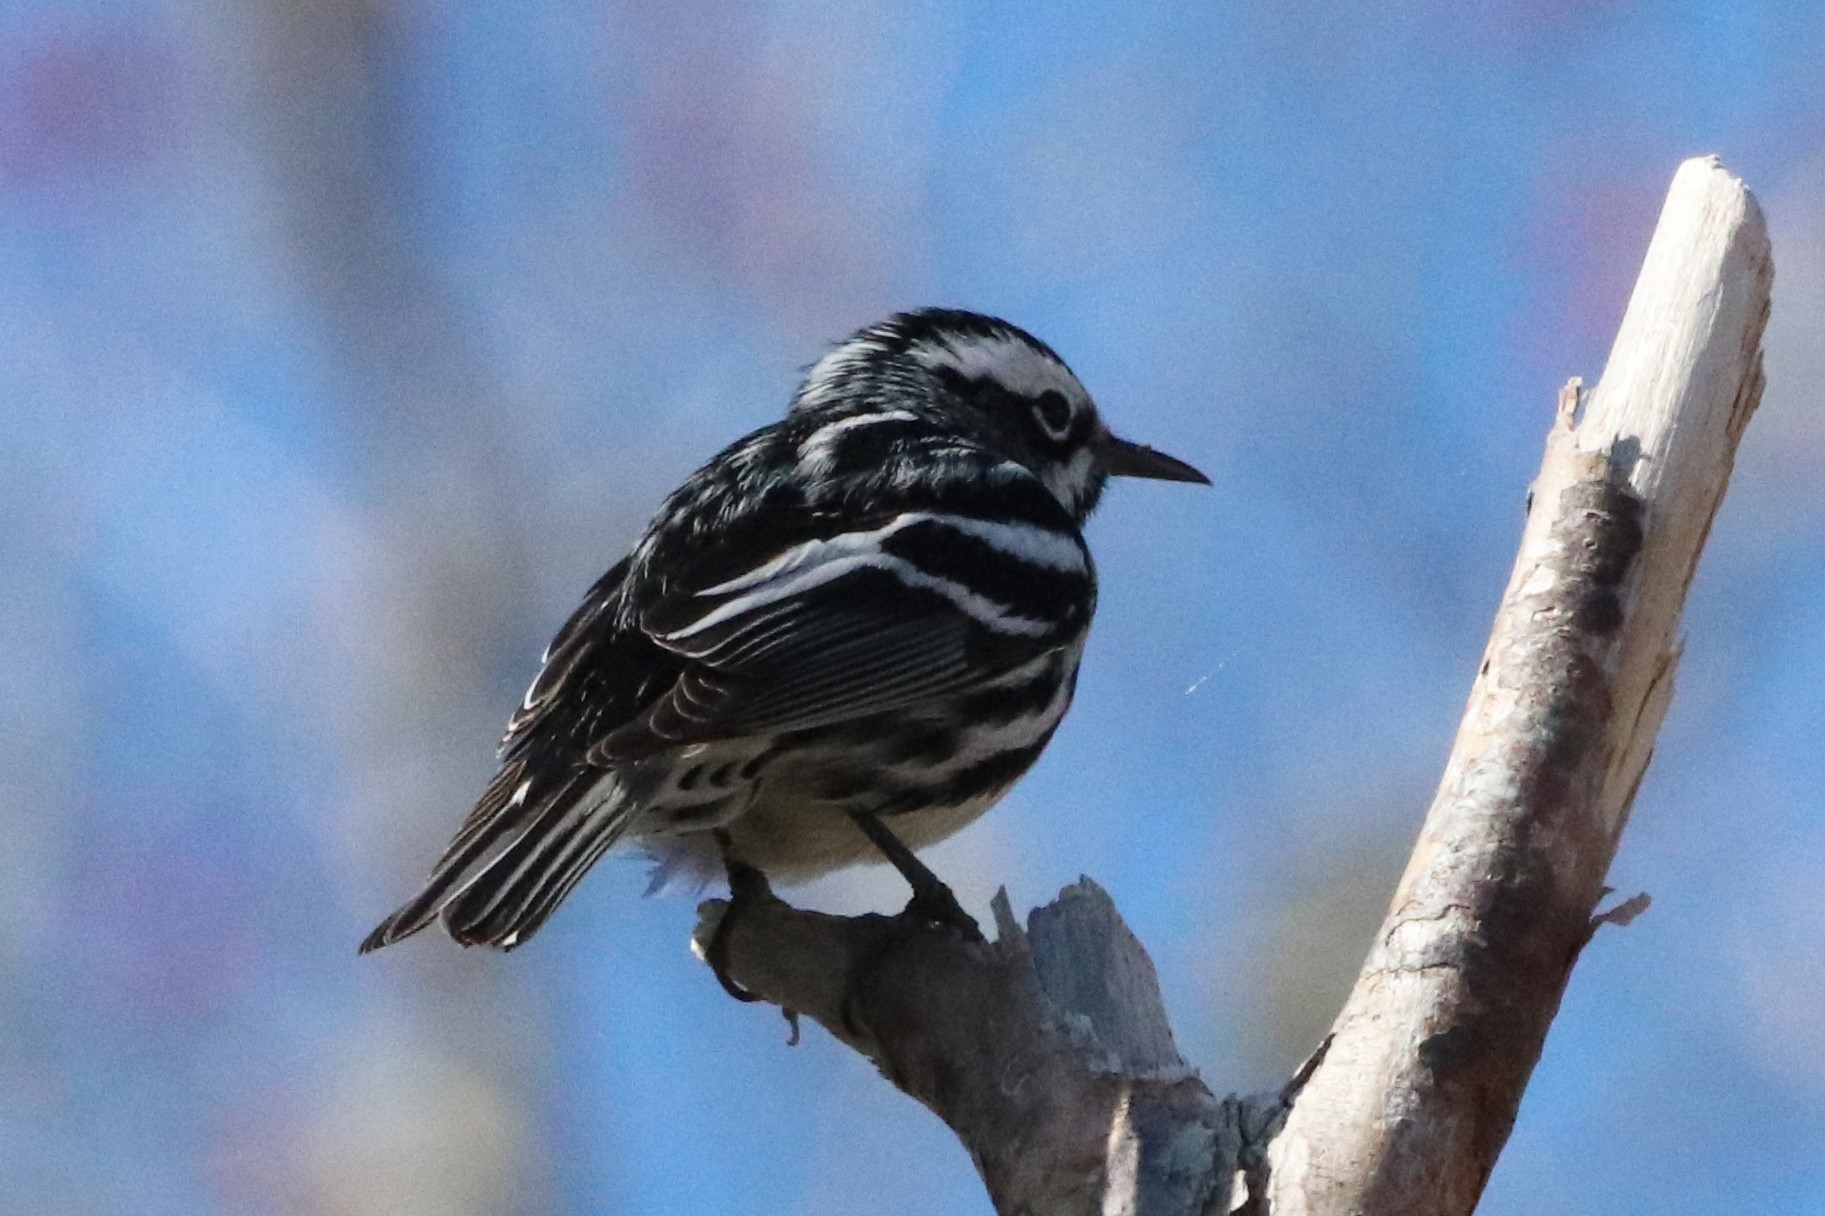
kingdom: Animalia
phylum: Chordata
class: Aves
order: Passeriformes
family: Parulidae
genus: Mniotilta
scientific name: Mniotilta varia
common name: Black-and-white warbler
